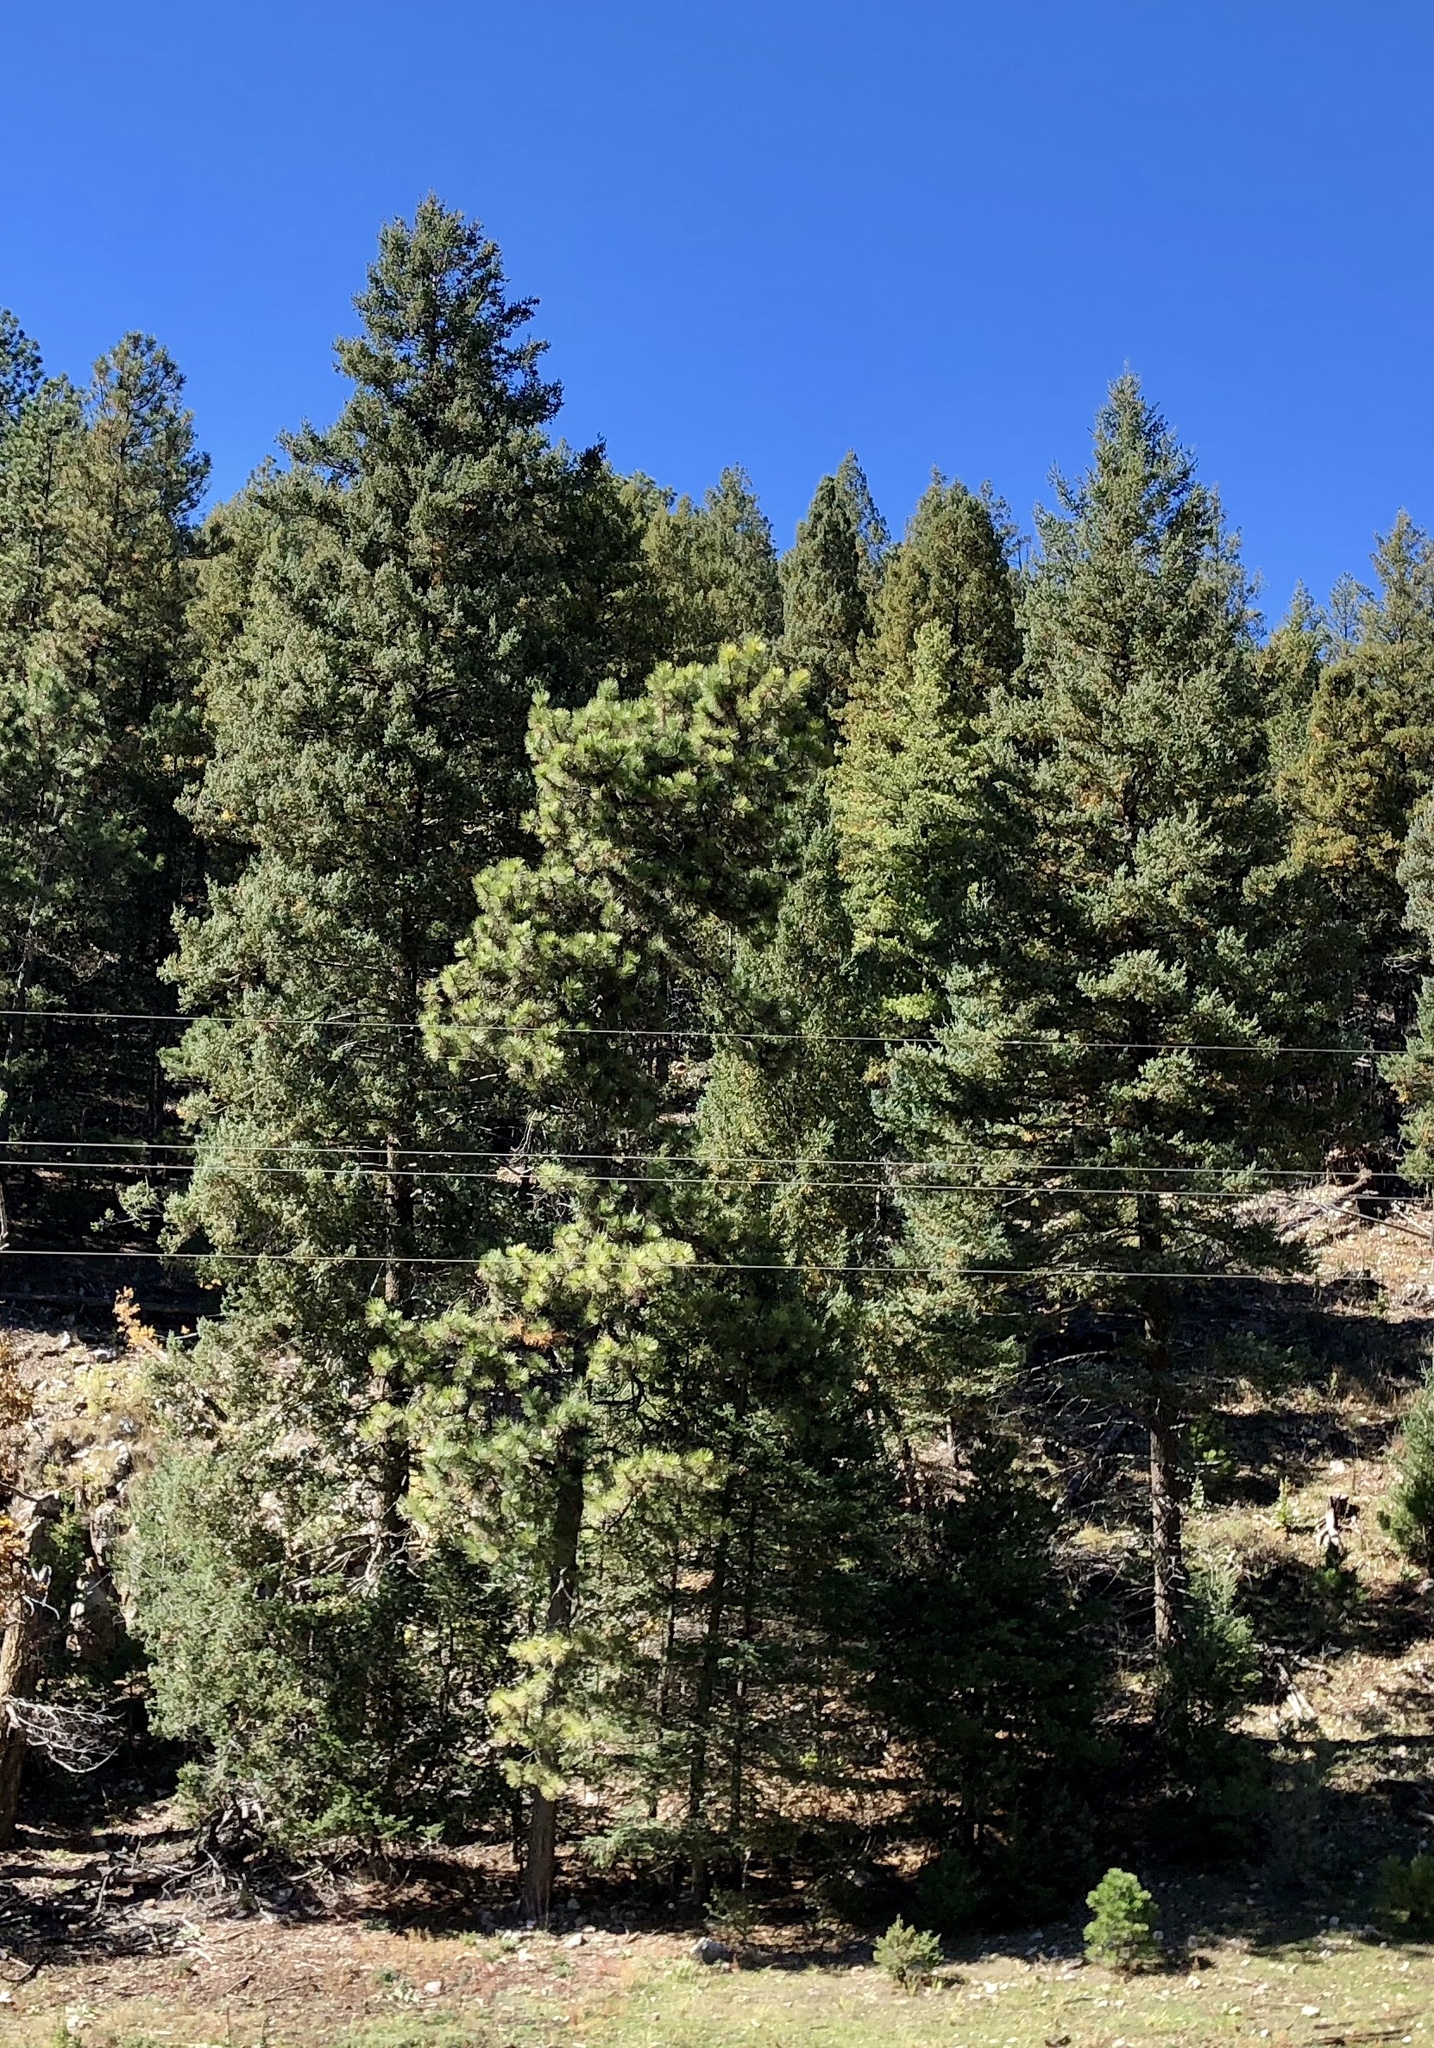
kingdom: Plantae
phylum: Tracheophyta
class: Pinopsida
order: Pinales
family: Pinaceae
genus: Pinus
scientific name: Pinus ponderosa
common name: Western yellow-pine
